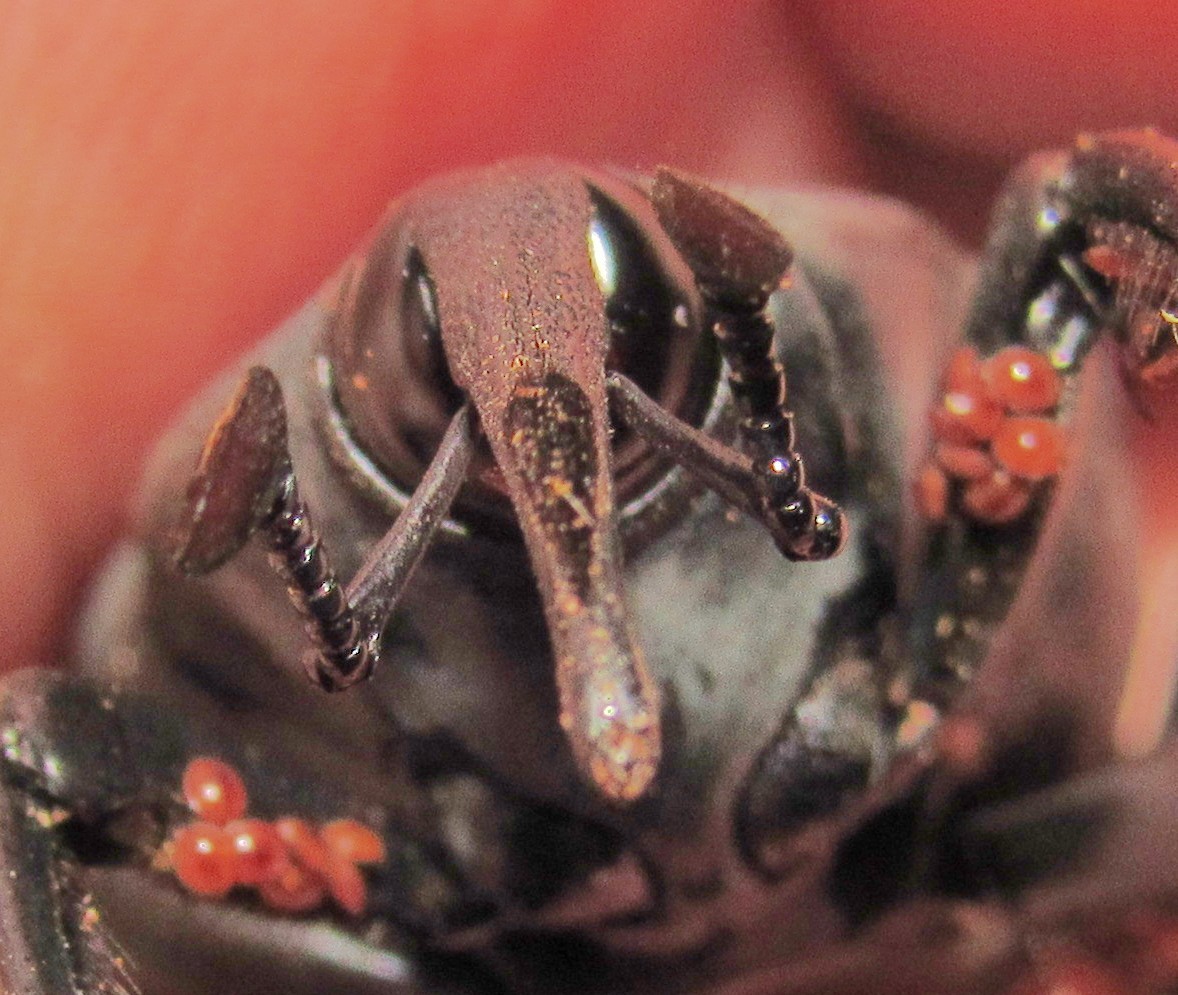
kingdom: Animalia
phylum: Arthropoda
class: Insecta
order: Coleoptera
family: Dryophthoridae
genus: Rhynchophorus
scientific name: Rhynchophorus palmarum
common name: Palm weevil
